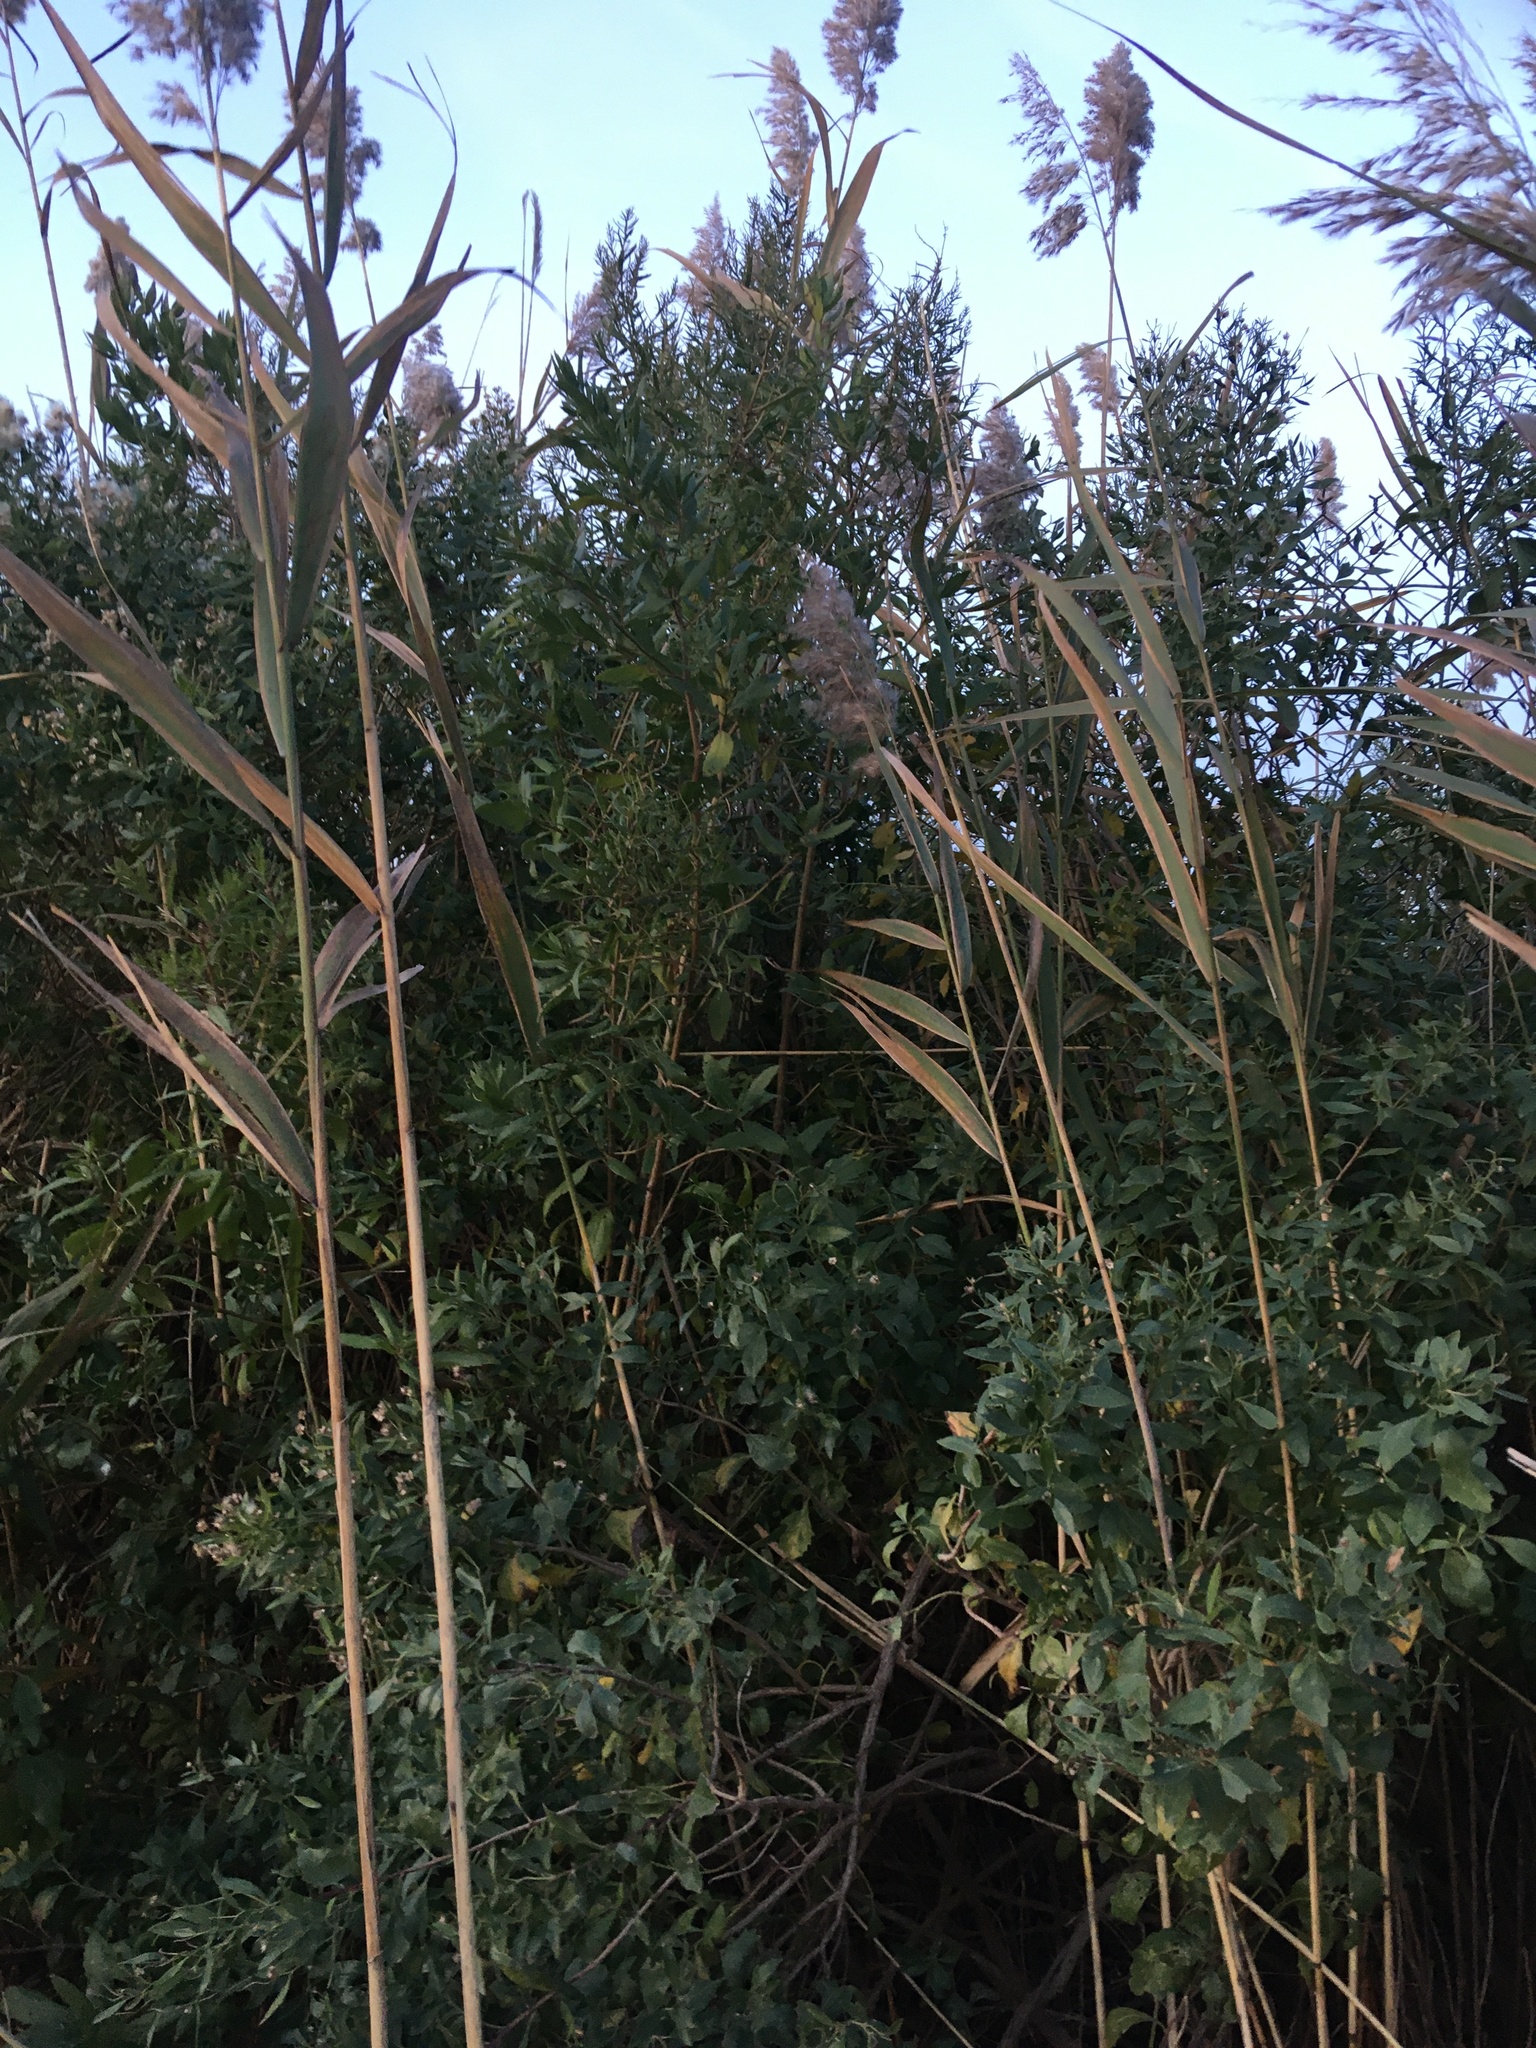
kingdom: Plantae
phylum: Tracheophyta
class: Magnoliopsida
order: Asterales
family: Asteraceae
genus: Baccharis
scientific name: Baccharis halimifolia
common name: Eastern baccharis
